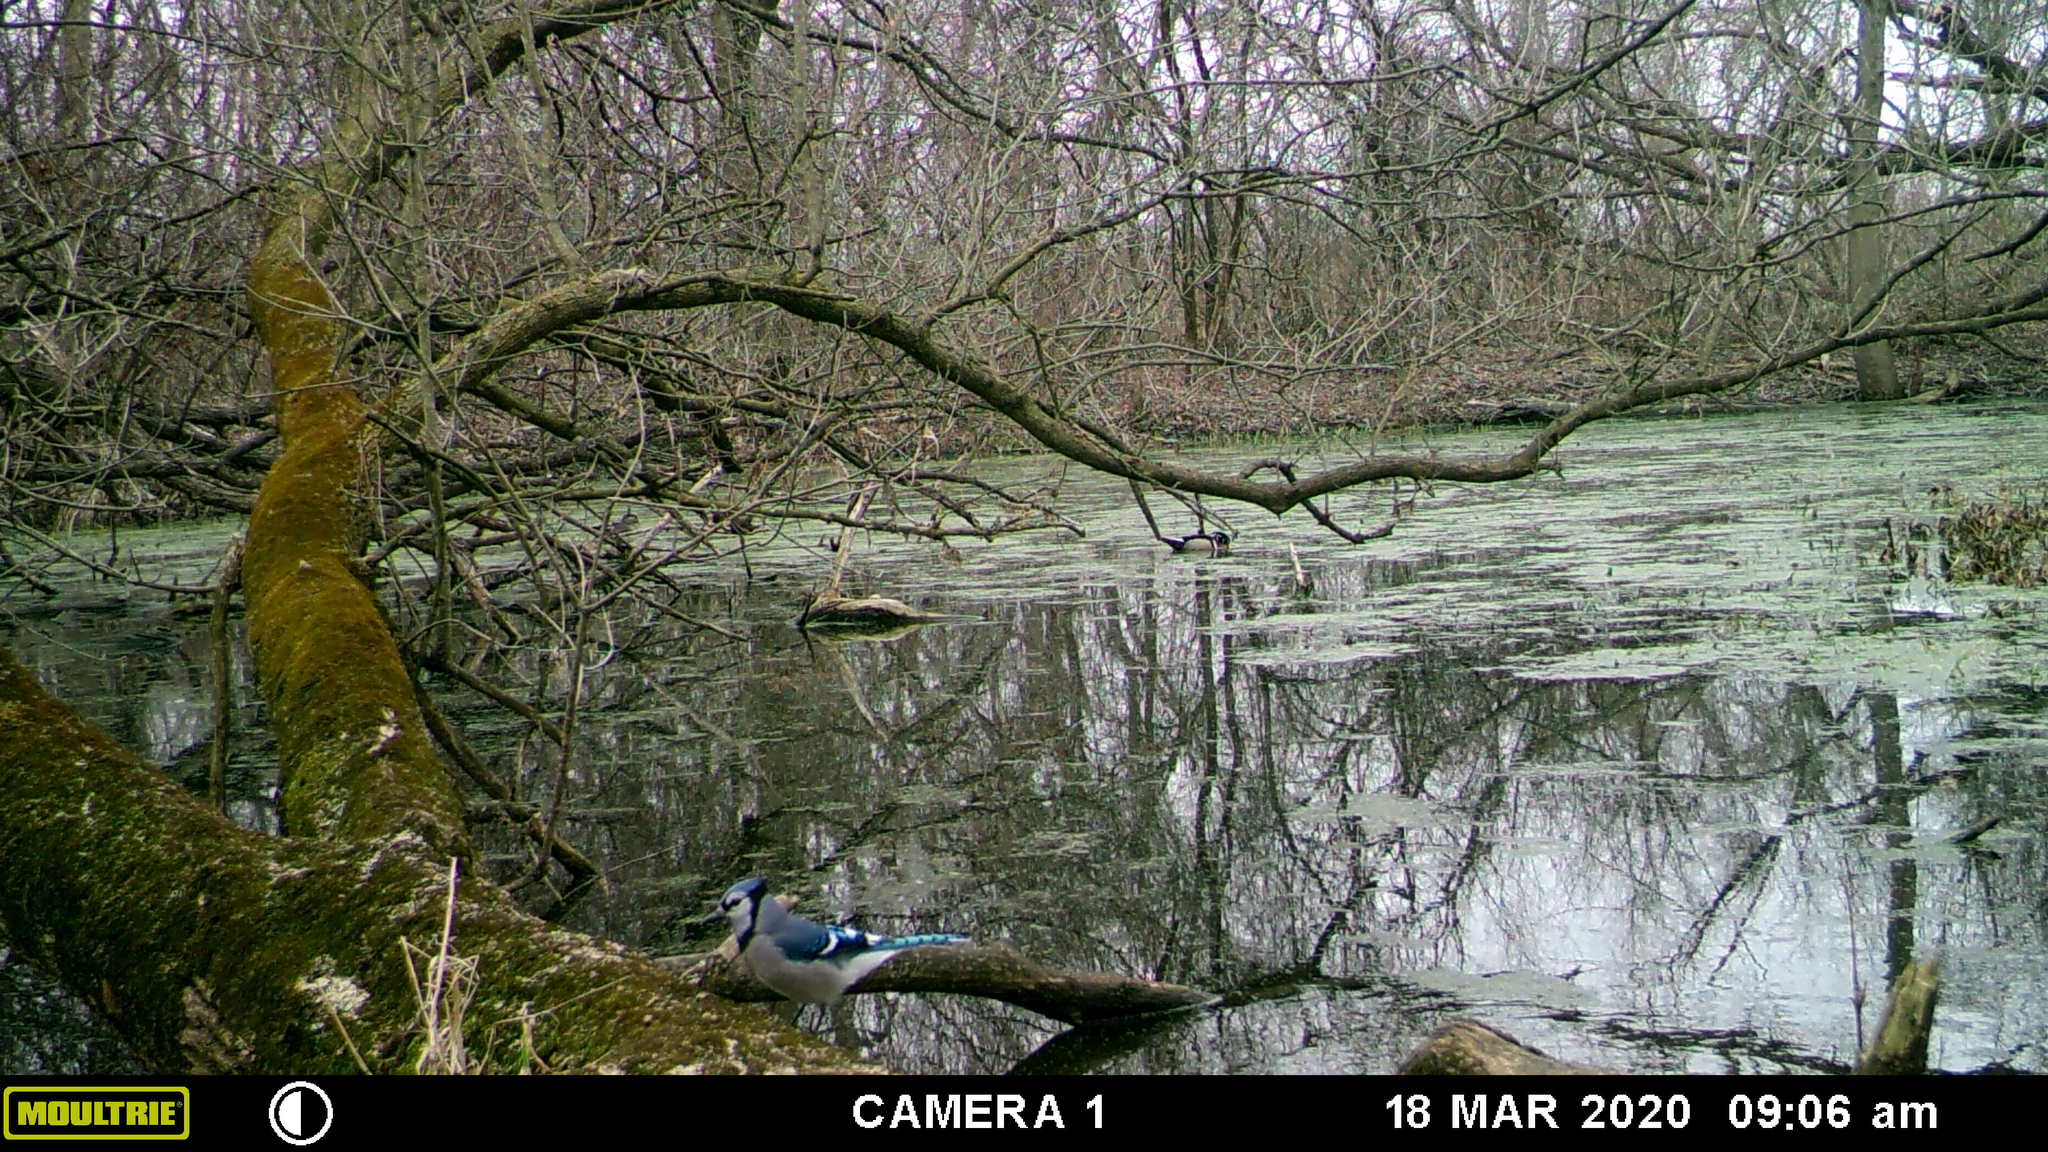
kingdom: Animalia
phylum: Chordata
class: Aves
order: Passeriformes
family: Corvidae
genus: Cyanocitta
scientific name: Cyanocitta cristata
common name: Blue jay
